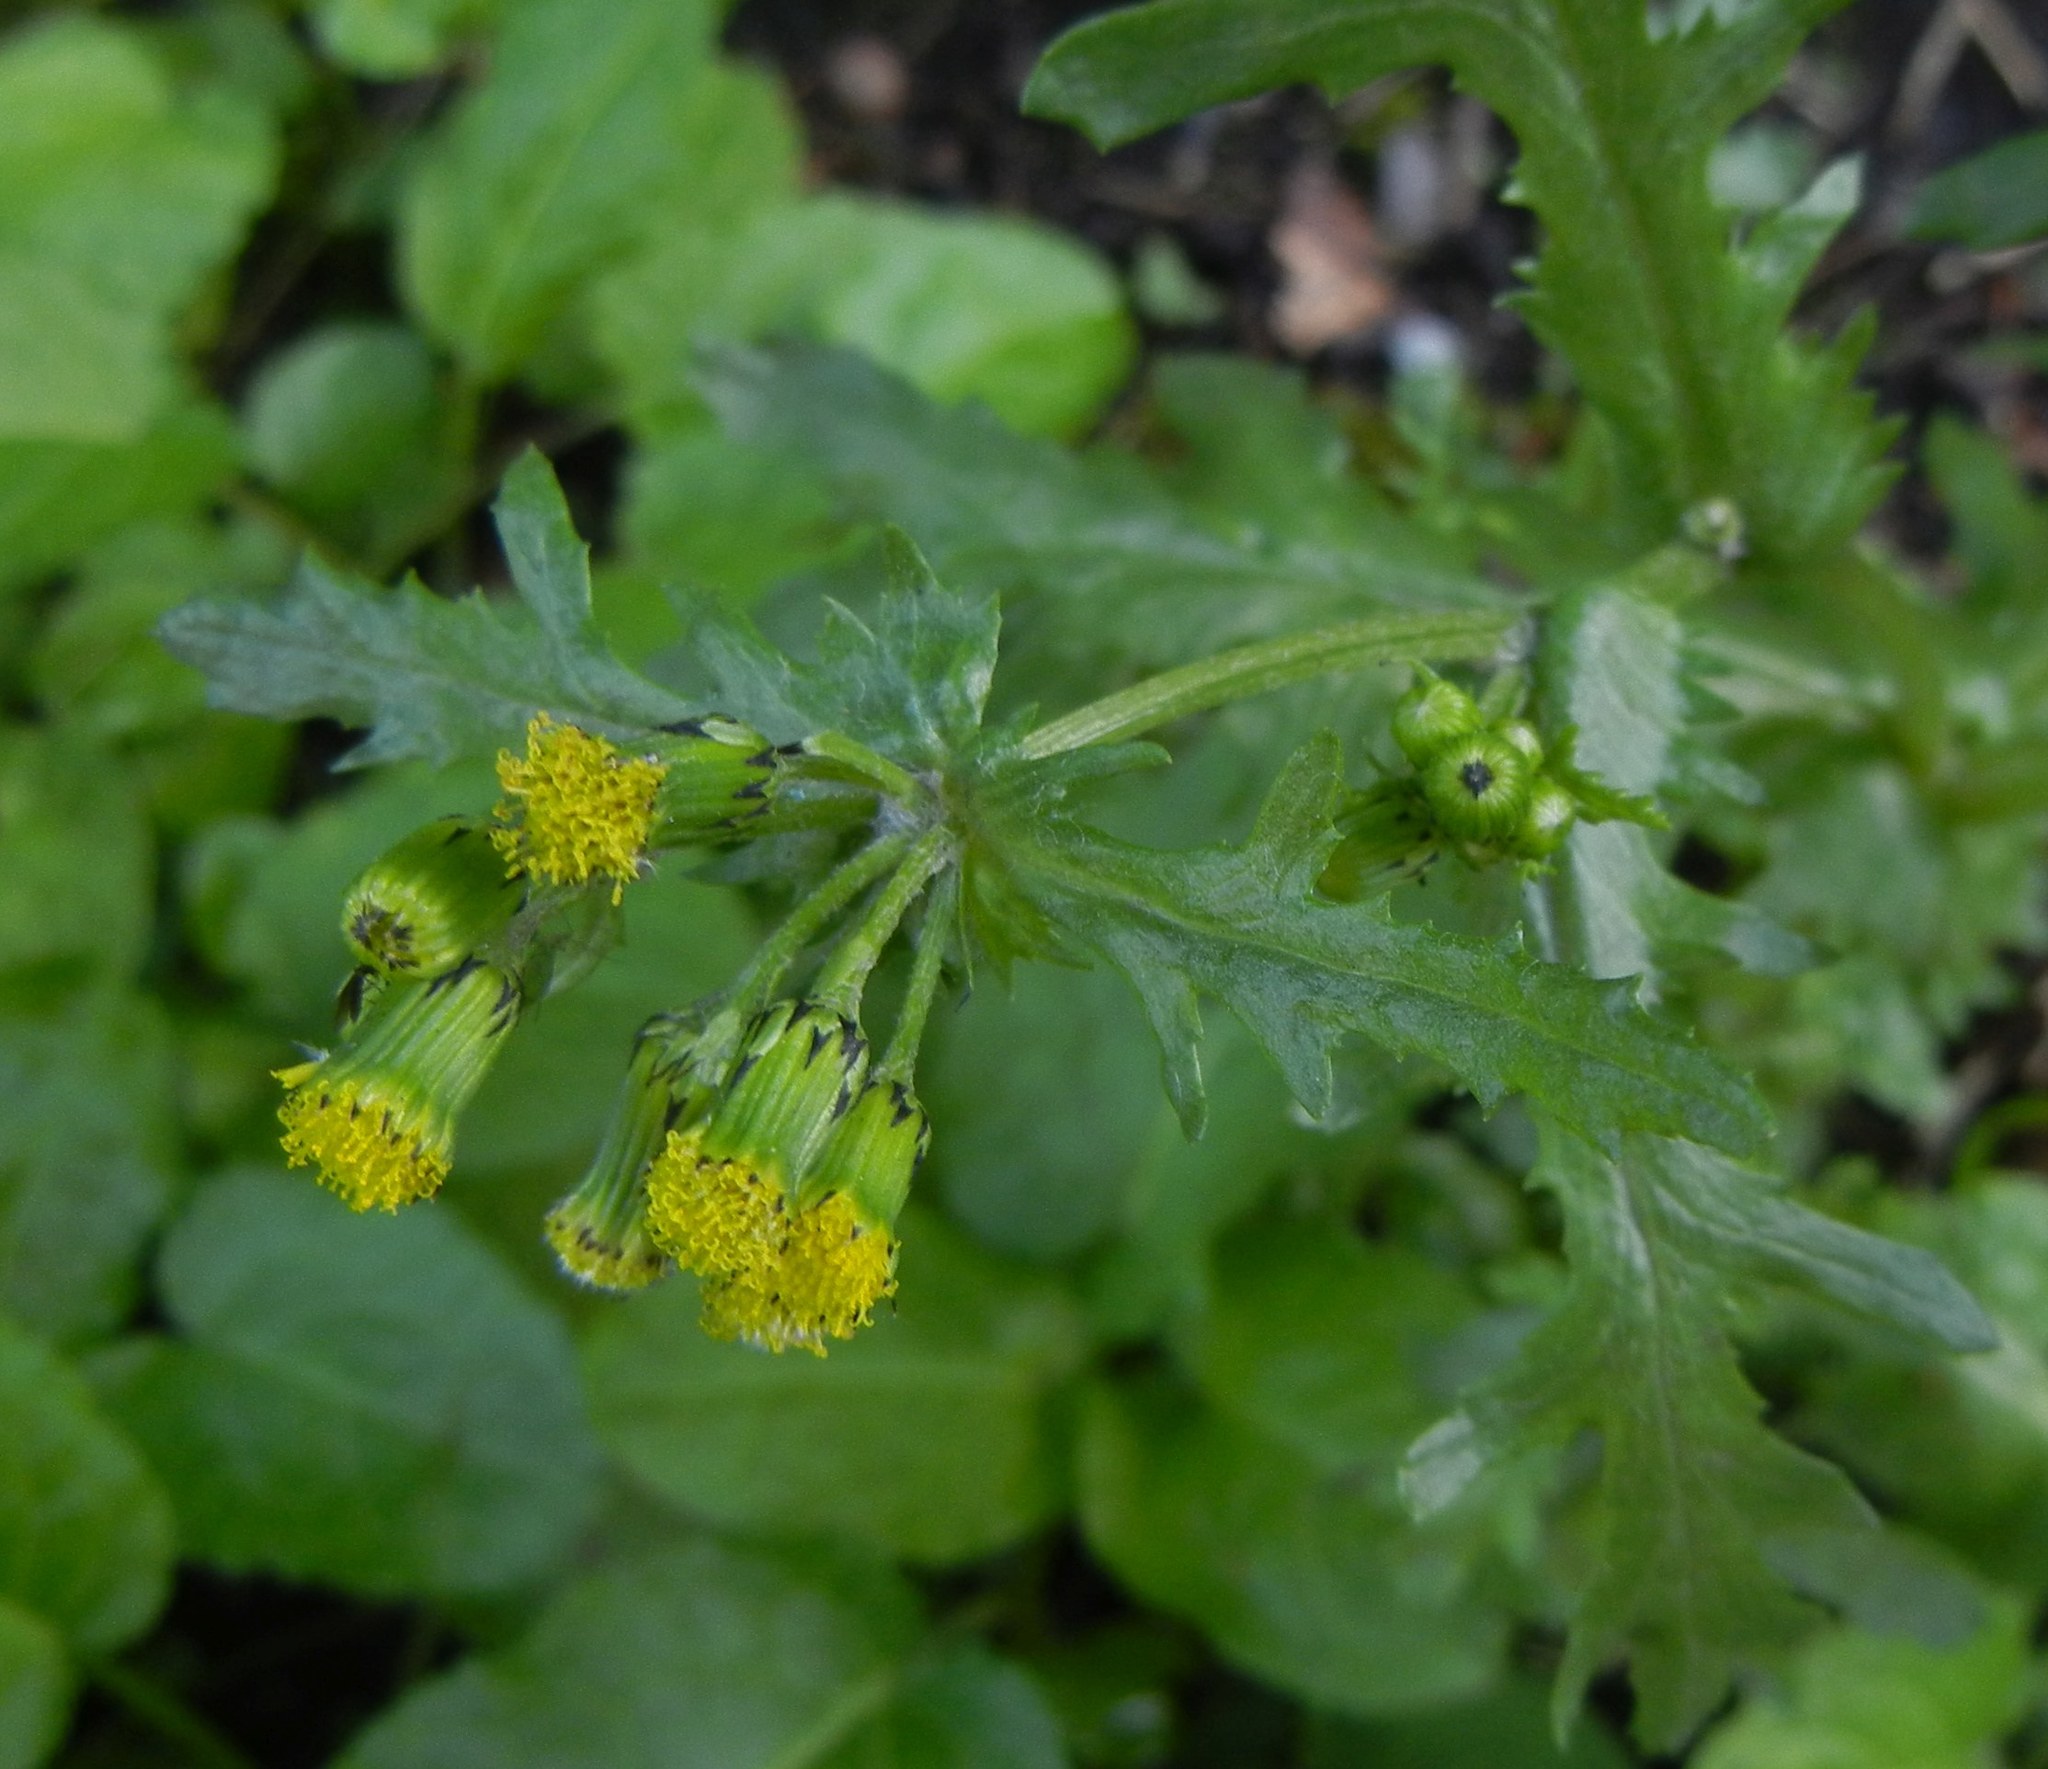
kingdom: Plantae
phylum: Tracheophyta
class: Magnoliopsida
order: Asterales
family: Asteraceae
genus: Senecio
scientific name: Senecio vulgaris
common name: Old-man-in-the-spring
